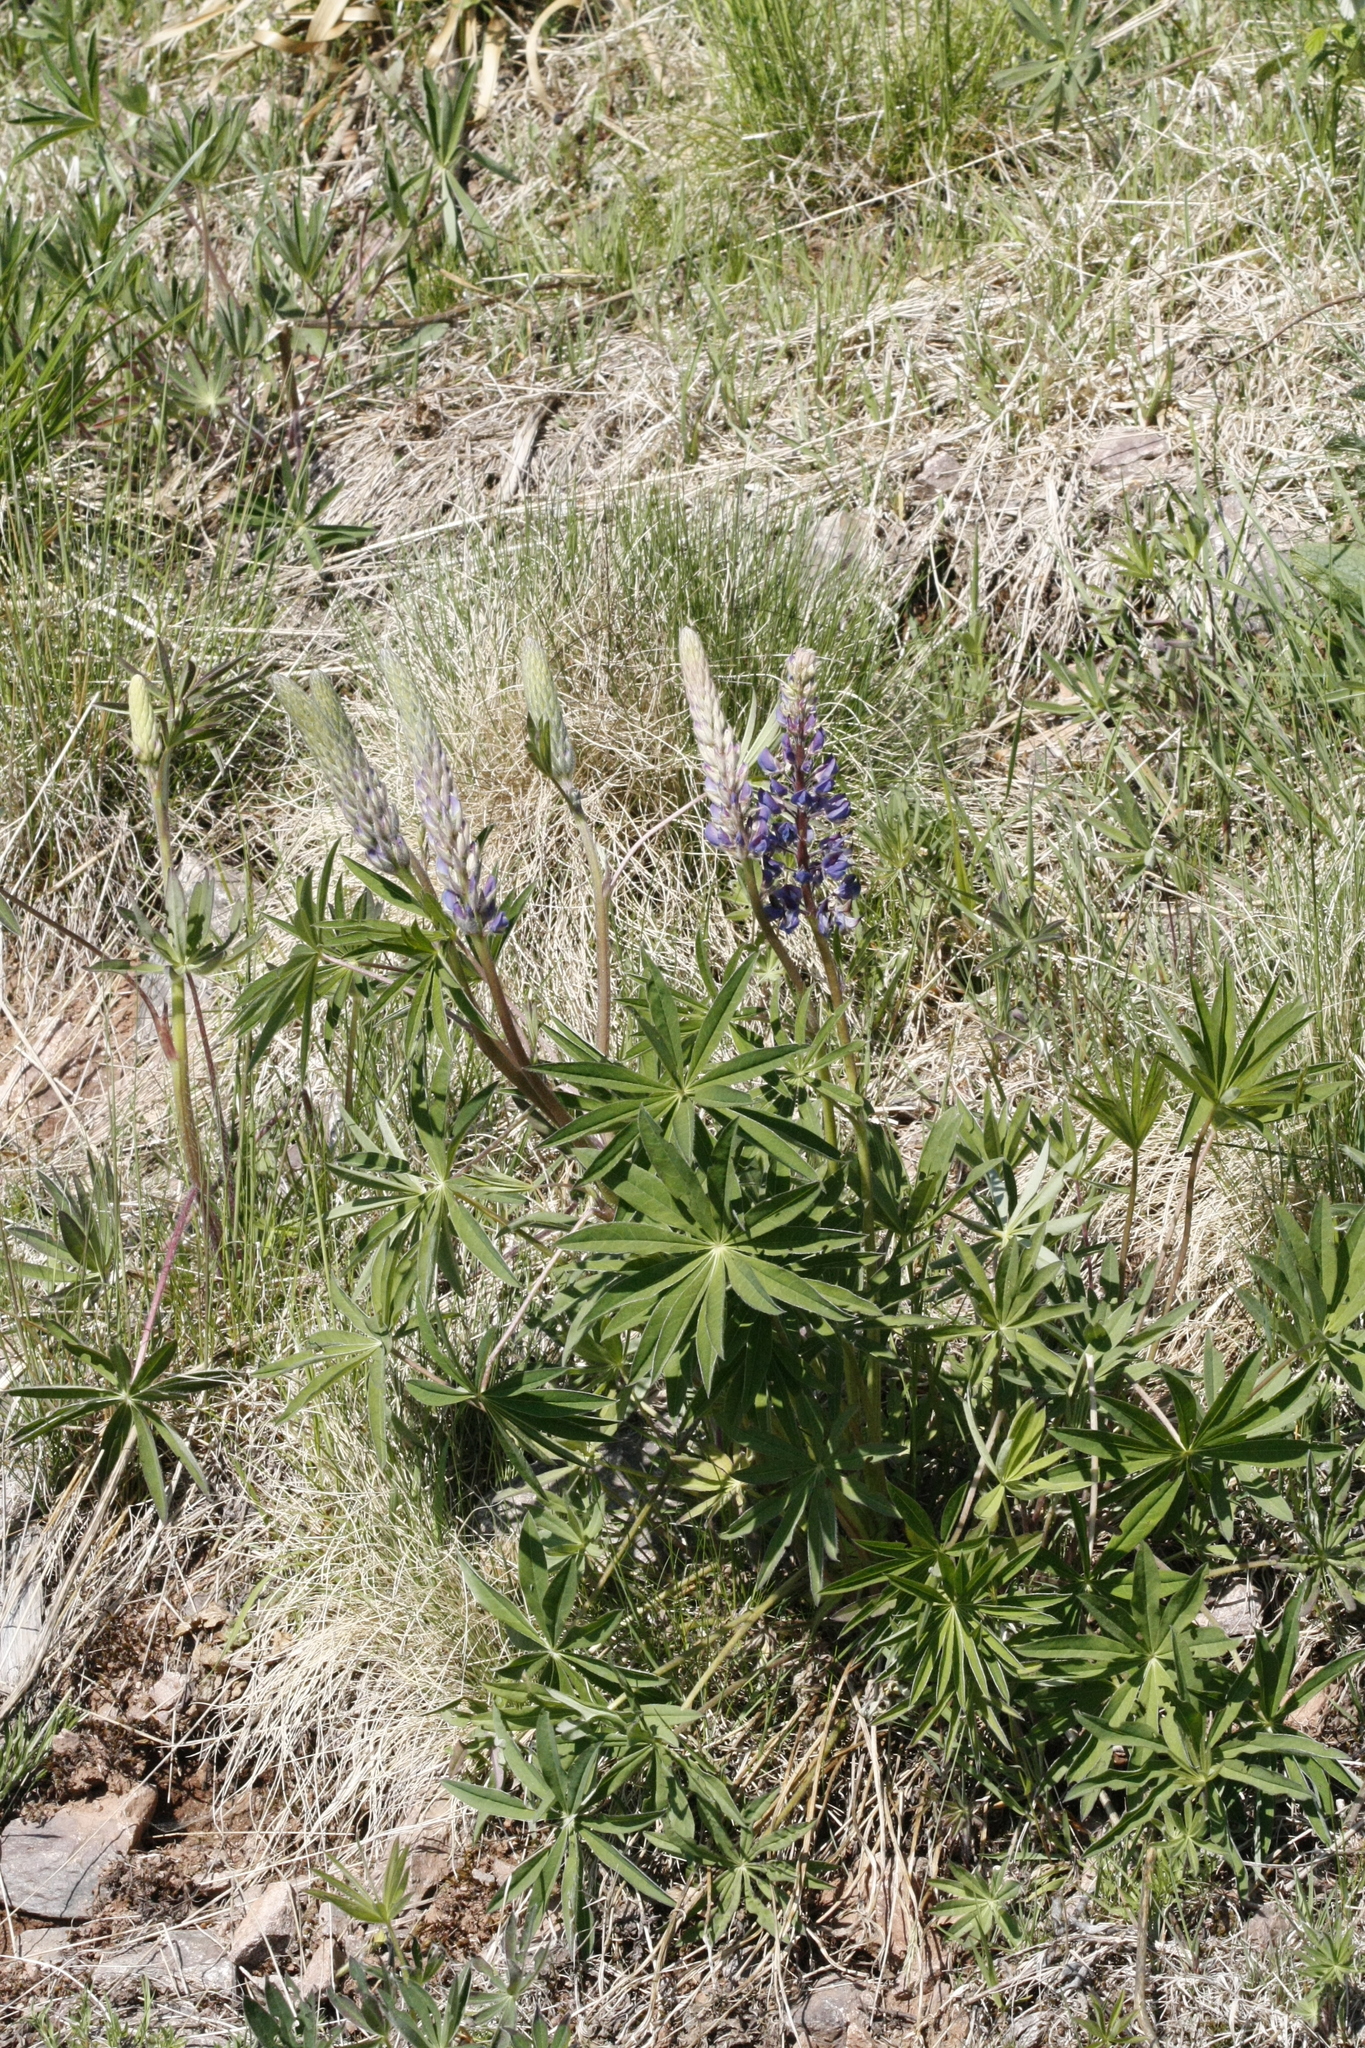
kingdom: Plantae
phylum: Tracheophyta
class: Magnoliopsida
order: Fabales
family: Fabaceae
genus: Lupinus
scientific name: Lupinus polyphyllus
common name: Garden lupin
